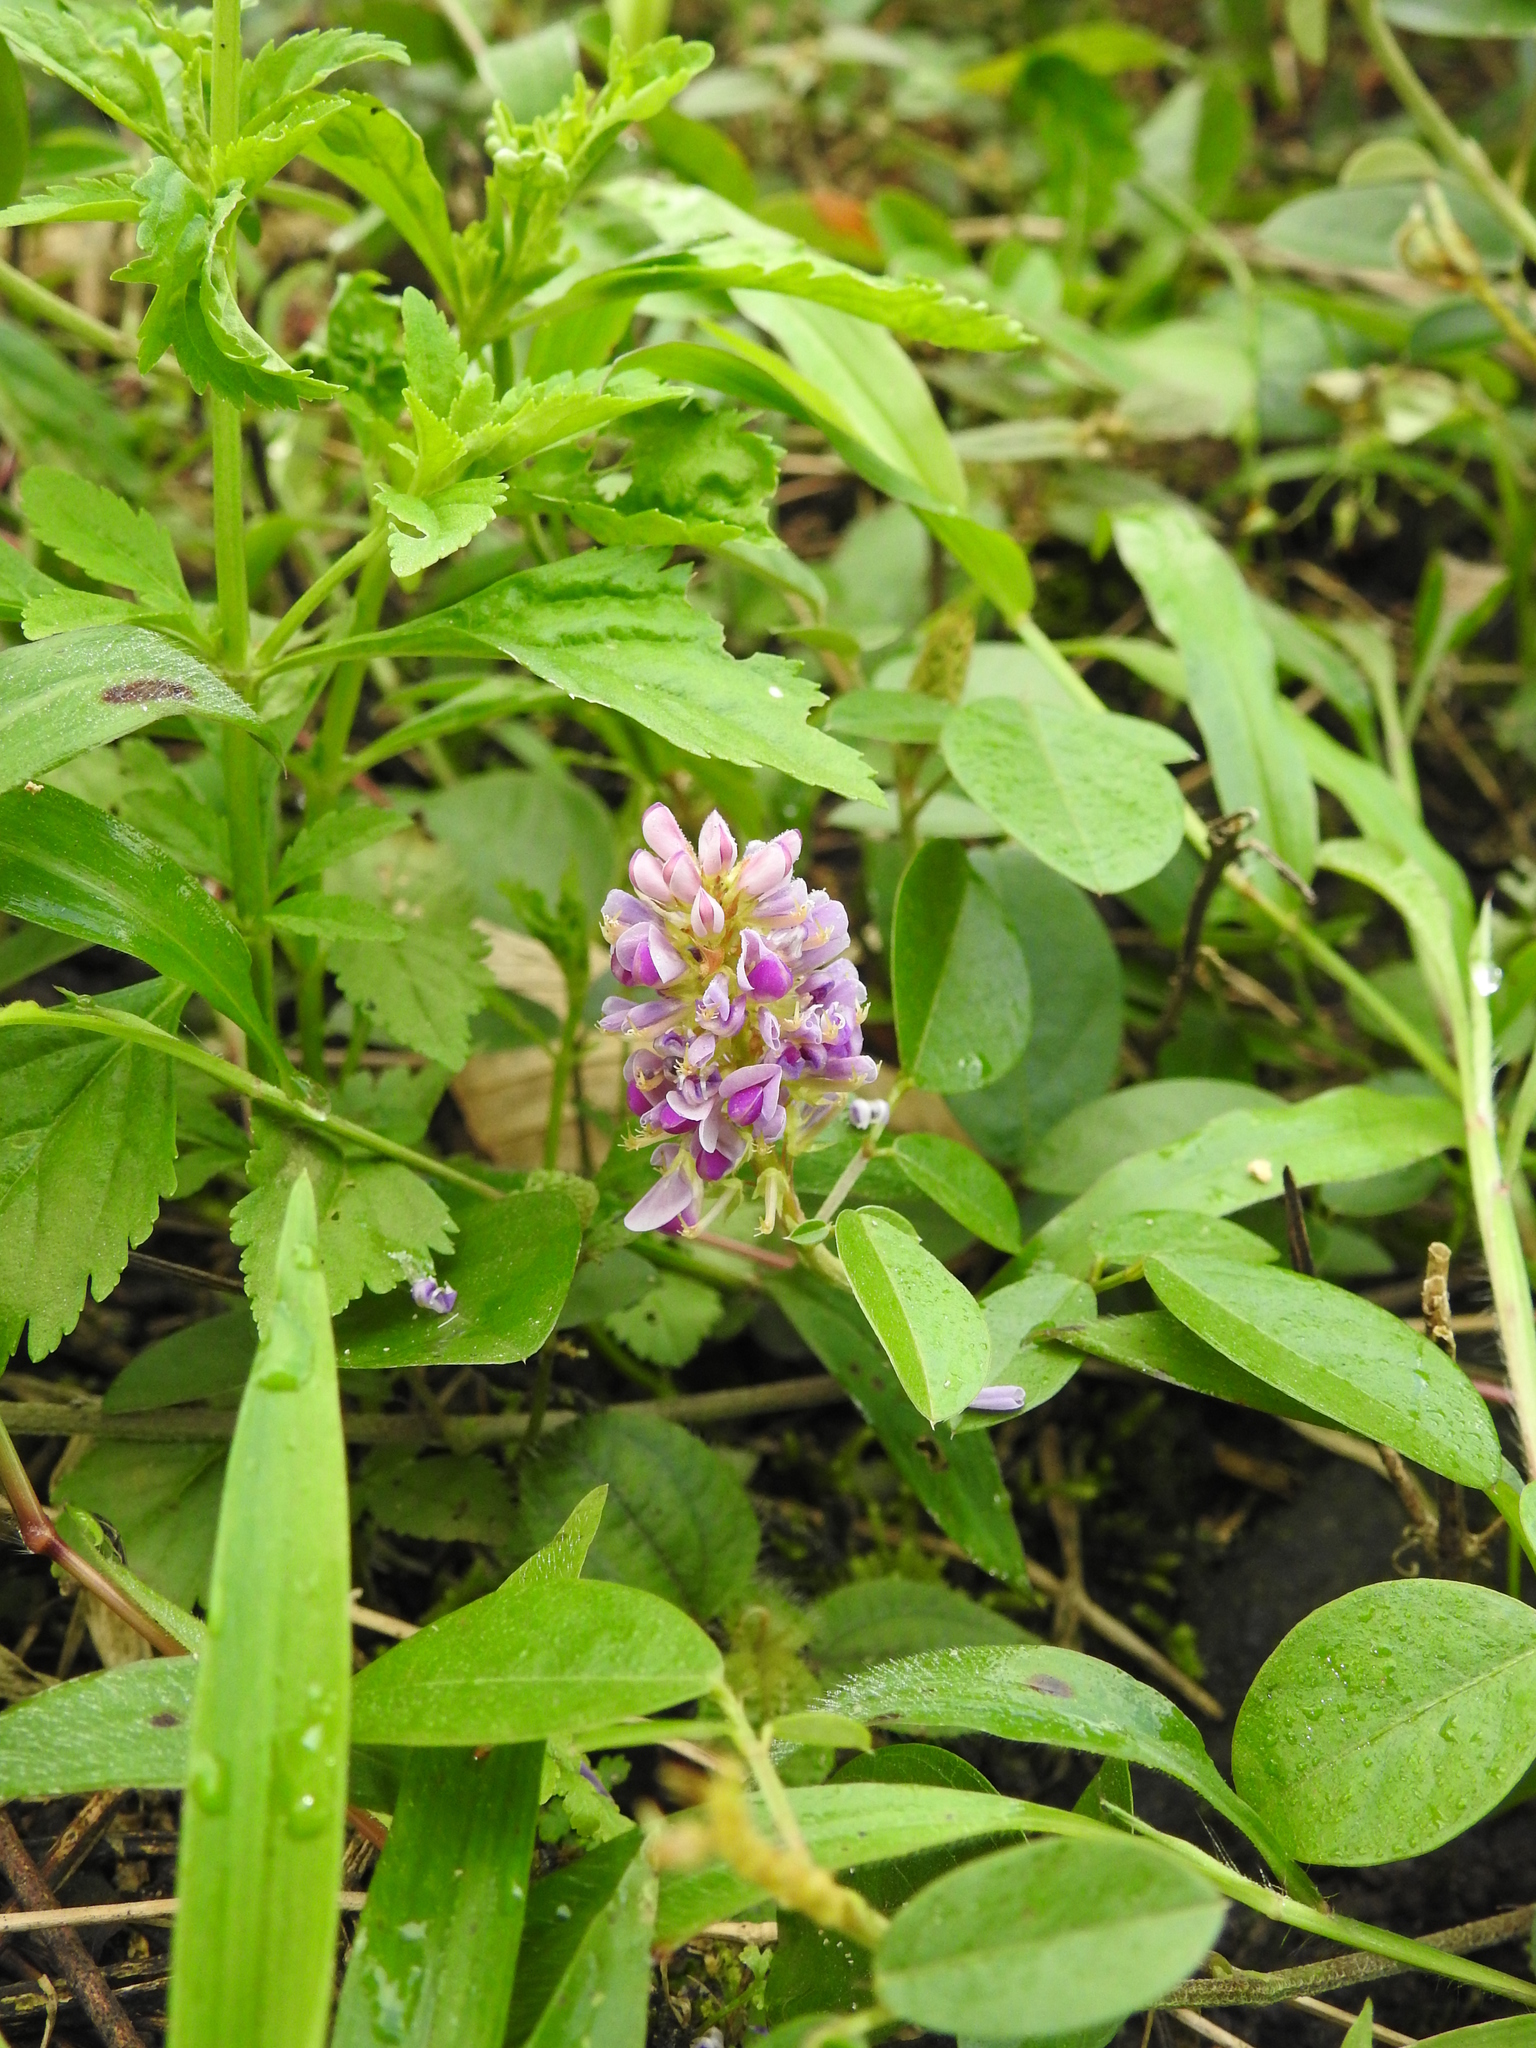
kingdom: Plantae
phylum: Tracheophyta
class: Magnoliopsida
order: Fabales
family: Fabaceae
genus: Alysicarpus
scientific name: Alysicarpus vaginalis
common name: White moneywort
